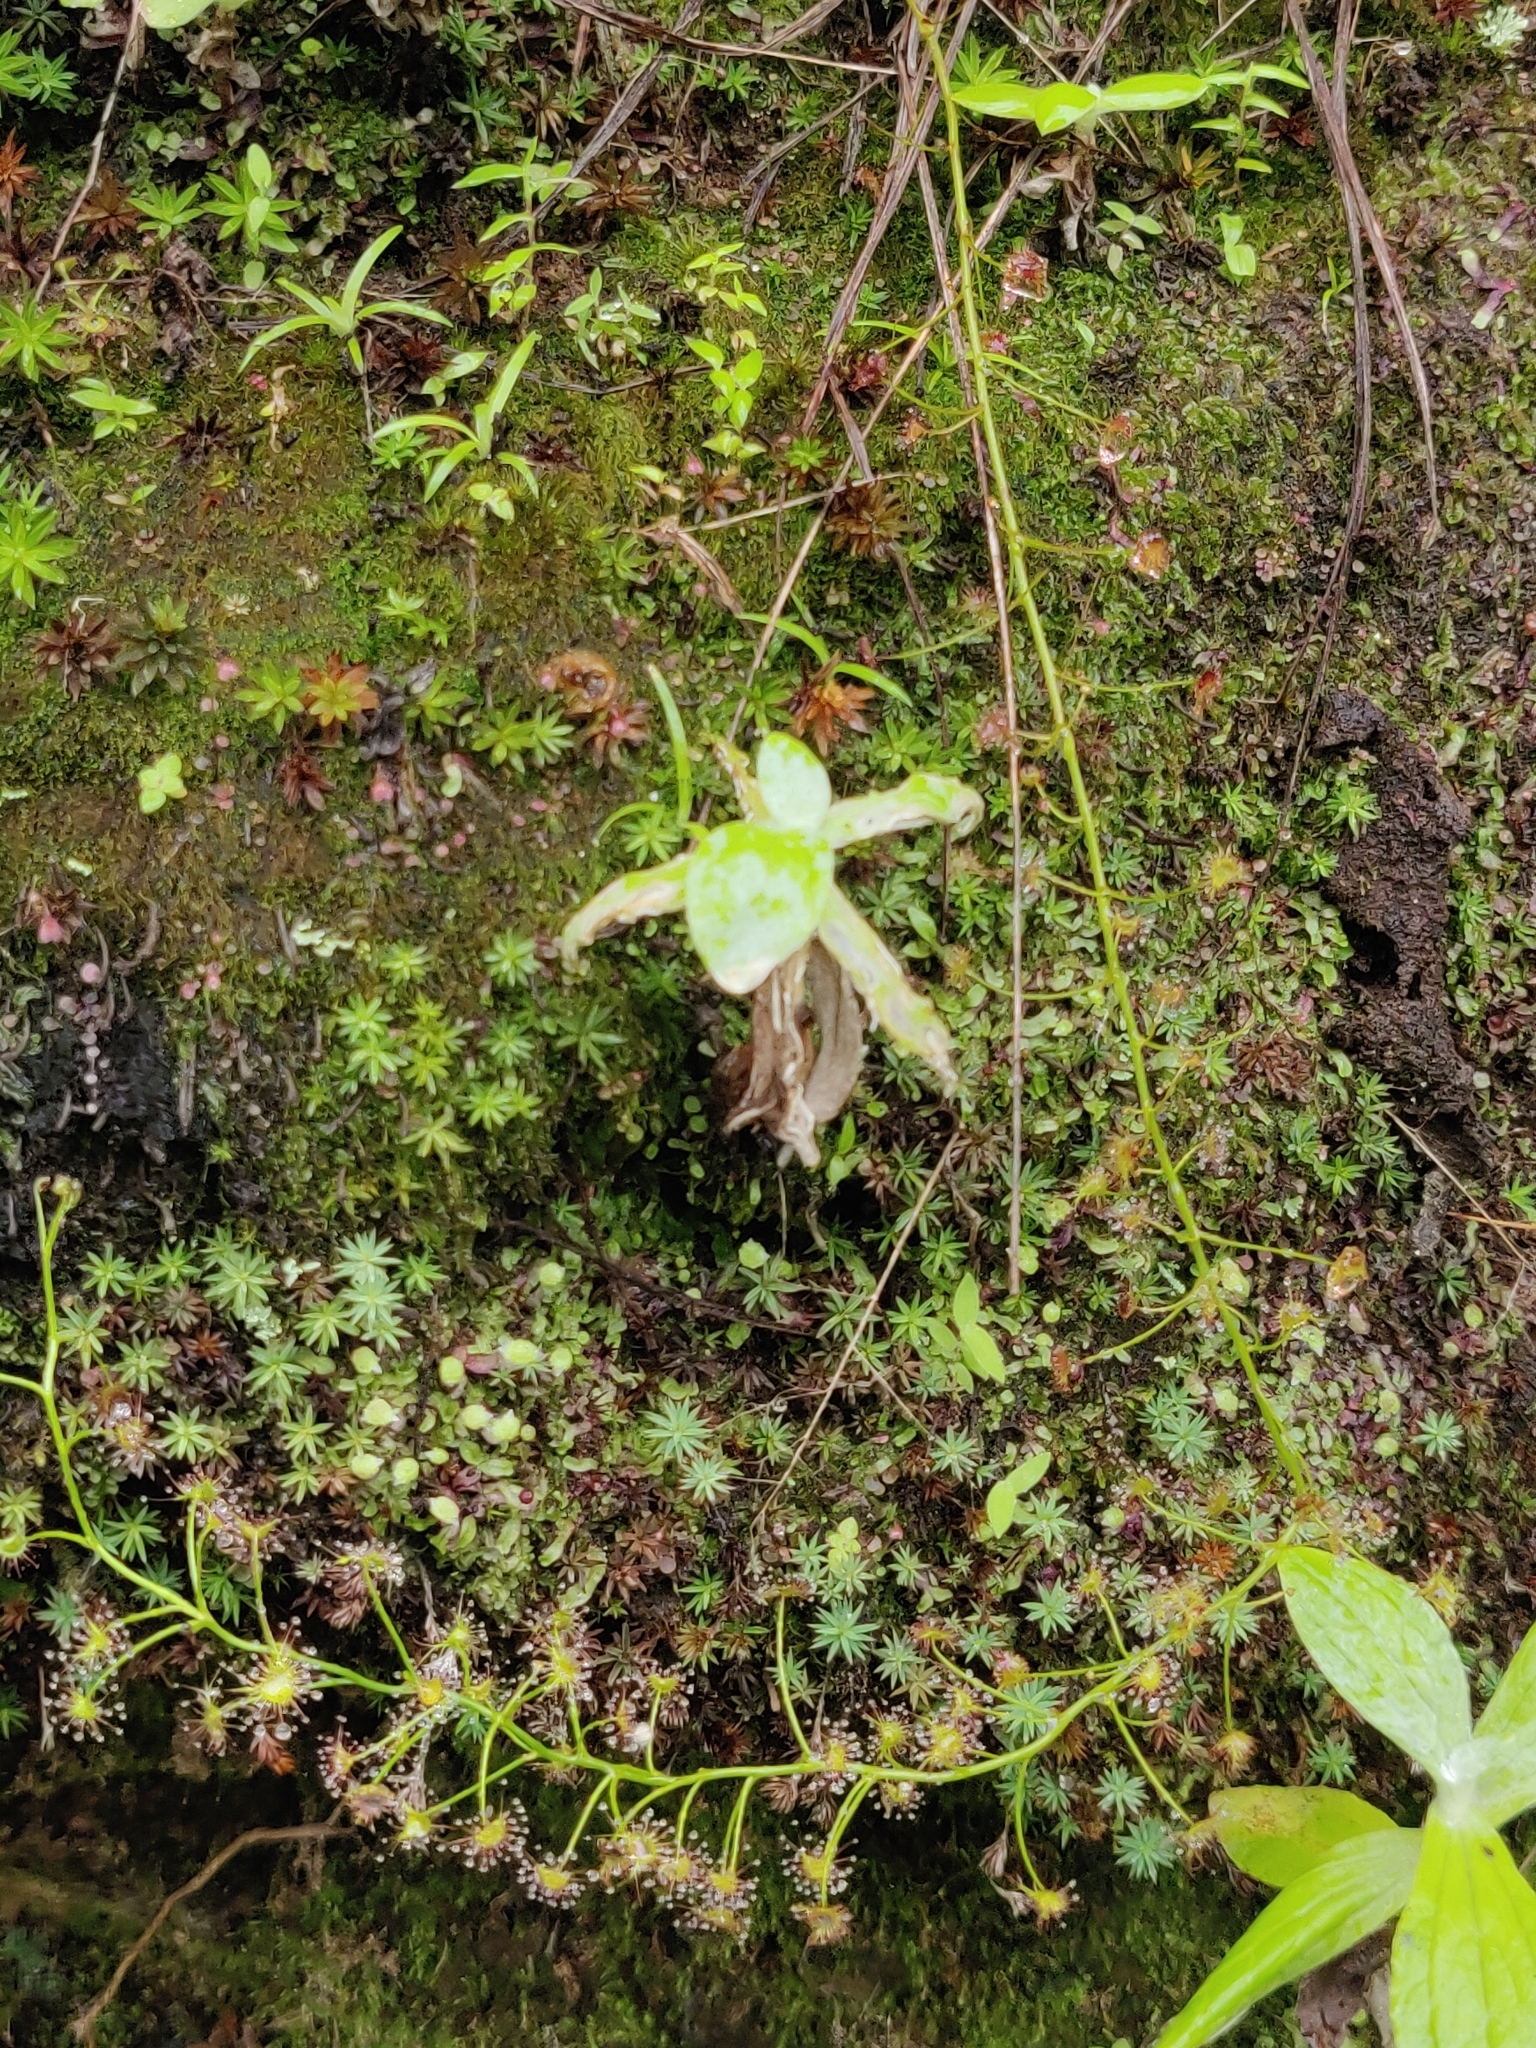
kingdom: Plantae
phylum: Tracheophyta
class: Magnoliopsida
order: Caryophyllales
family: Droseraceae
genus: Drosera
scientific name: Drosera peltata
